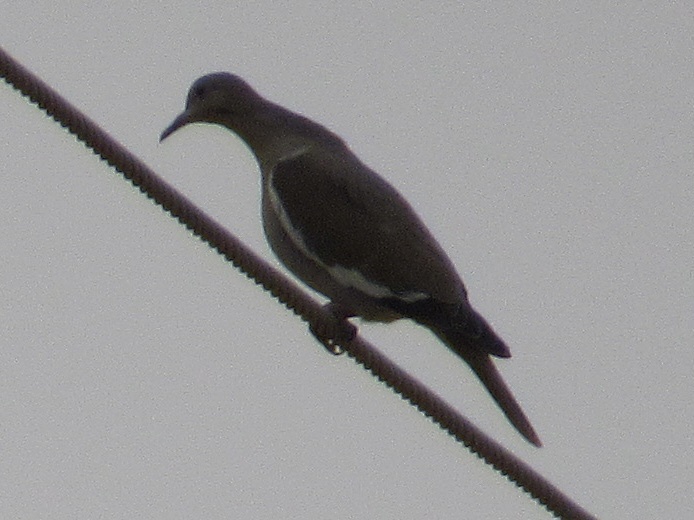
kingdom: Animalia
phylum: Chordata
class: Aves
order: Columbiformes
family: Columbidae
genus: Zenaida
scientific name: Zenaida asiatica
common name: White-winged dove
